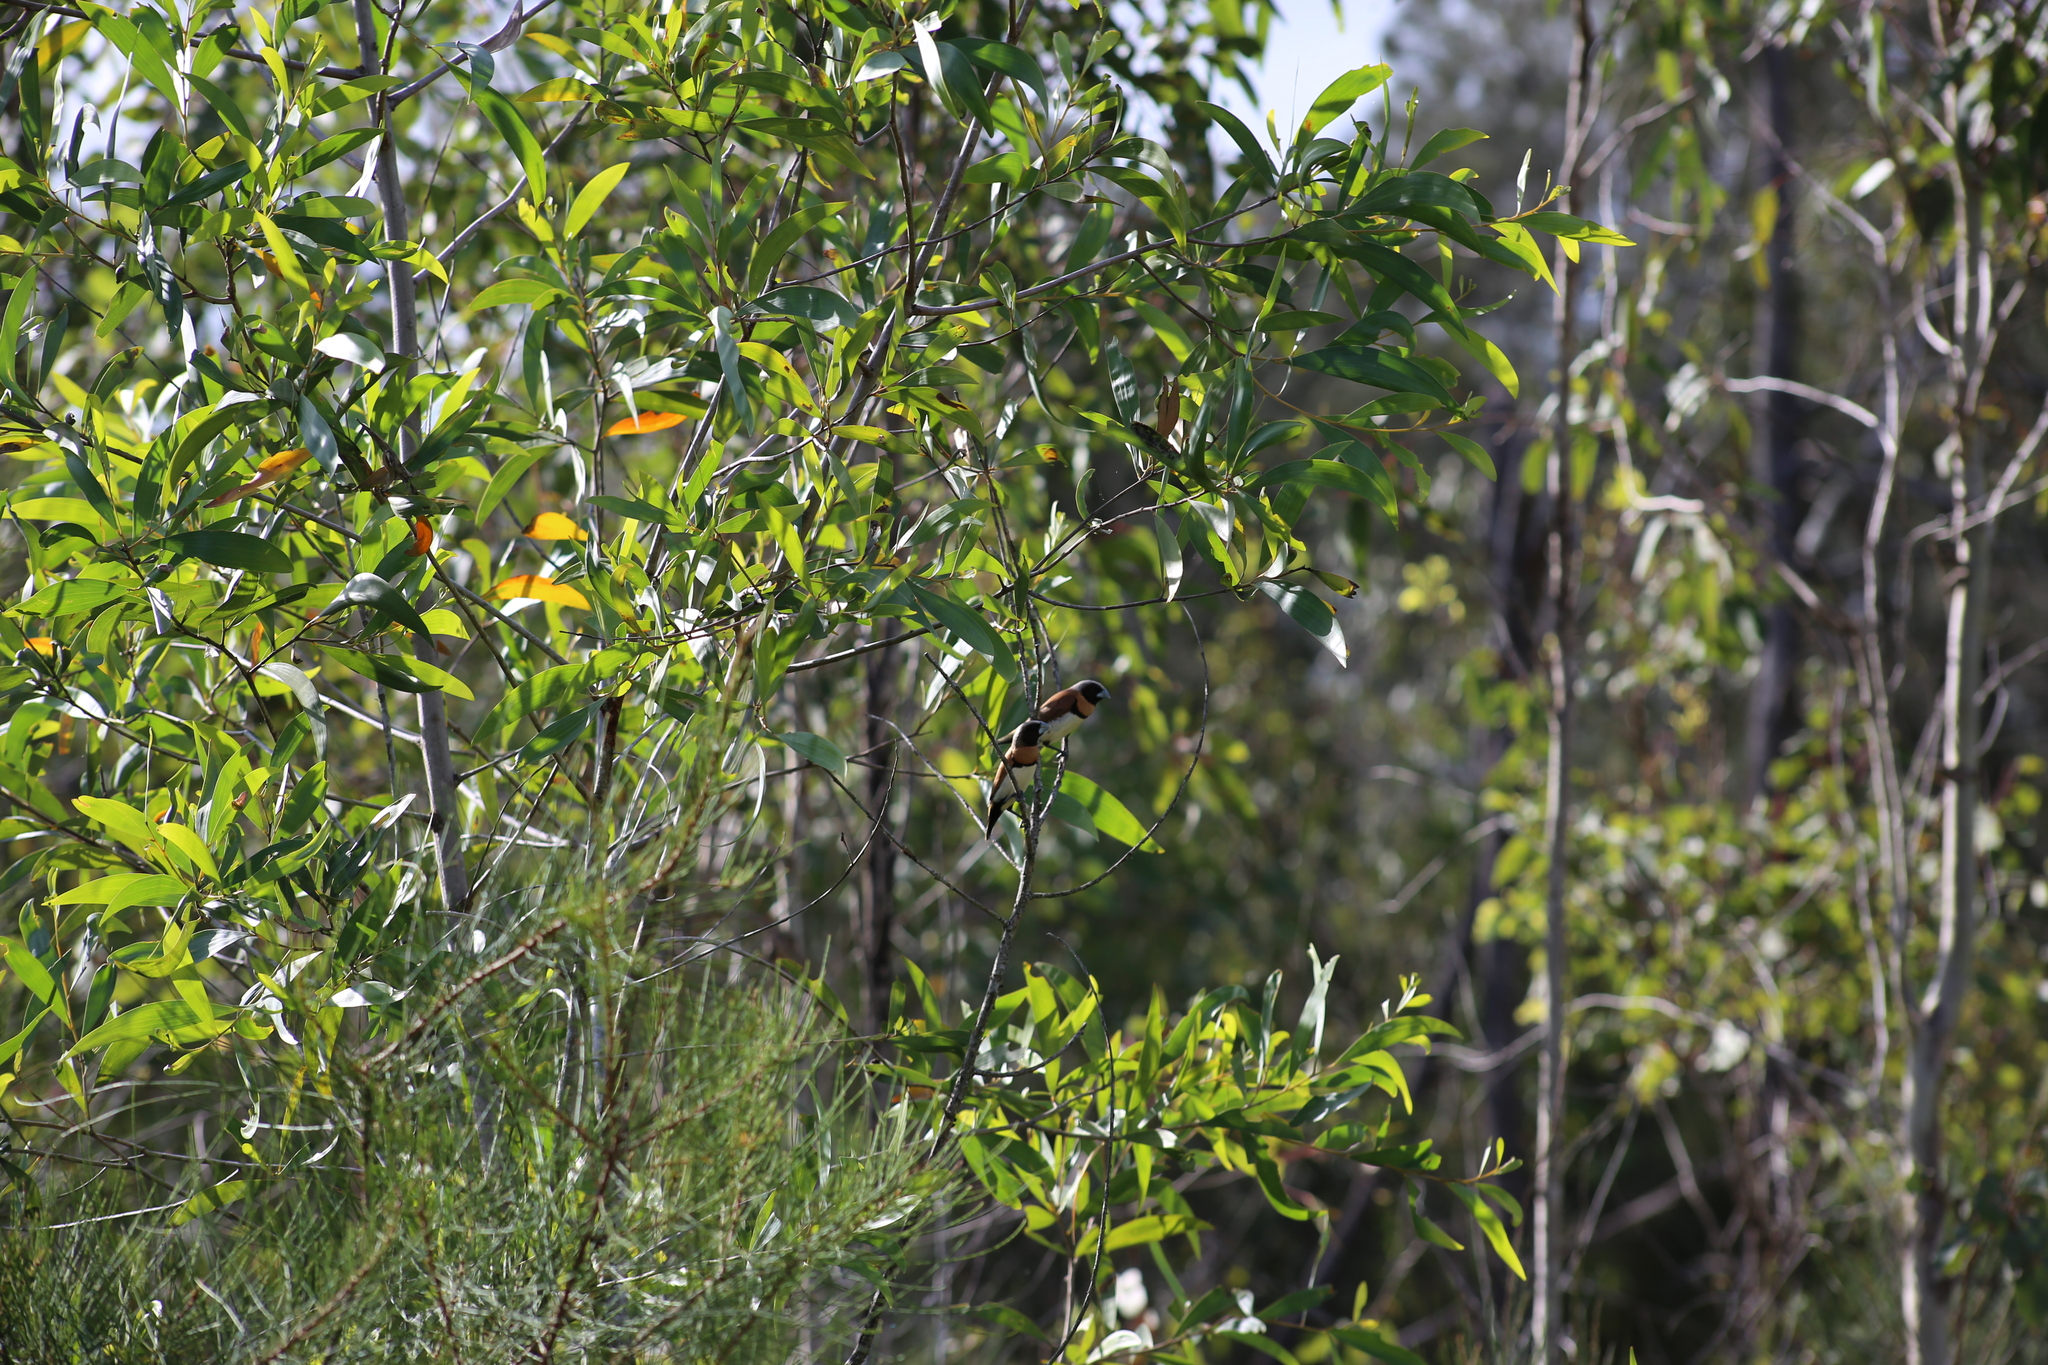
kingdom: Animalia
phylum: Chordata
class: Aves
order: Passeriformes
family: Estrildidae
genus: Lonchura
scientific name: Lonchura castaneothorax
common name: Chestnut-breasted mannikin
